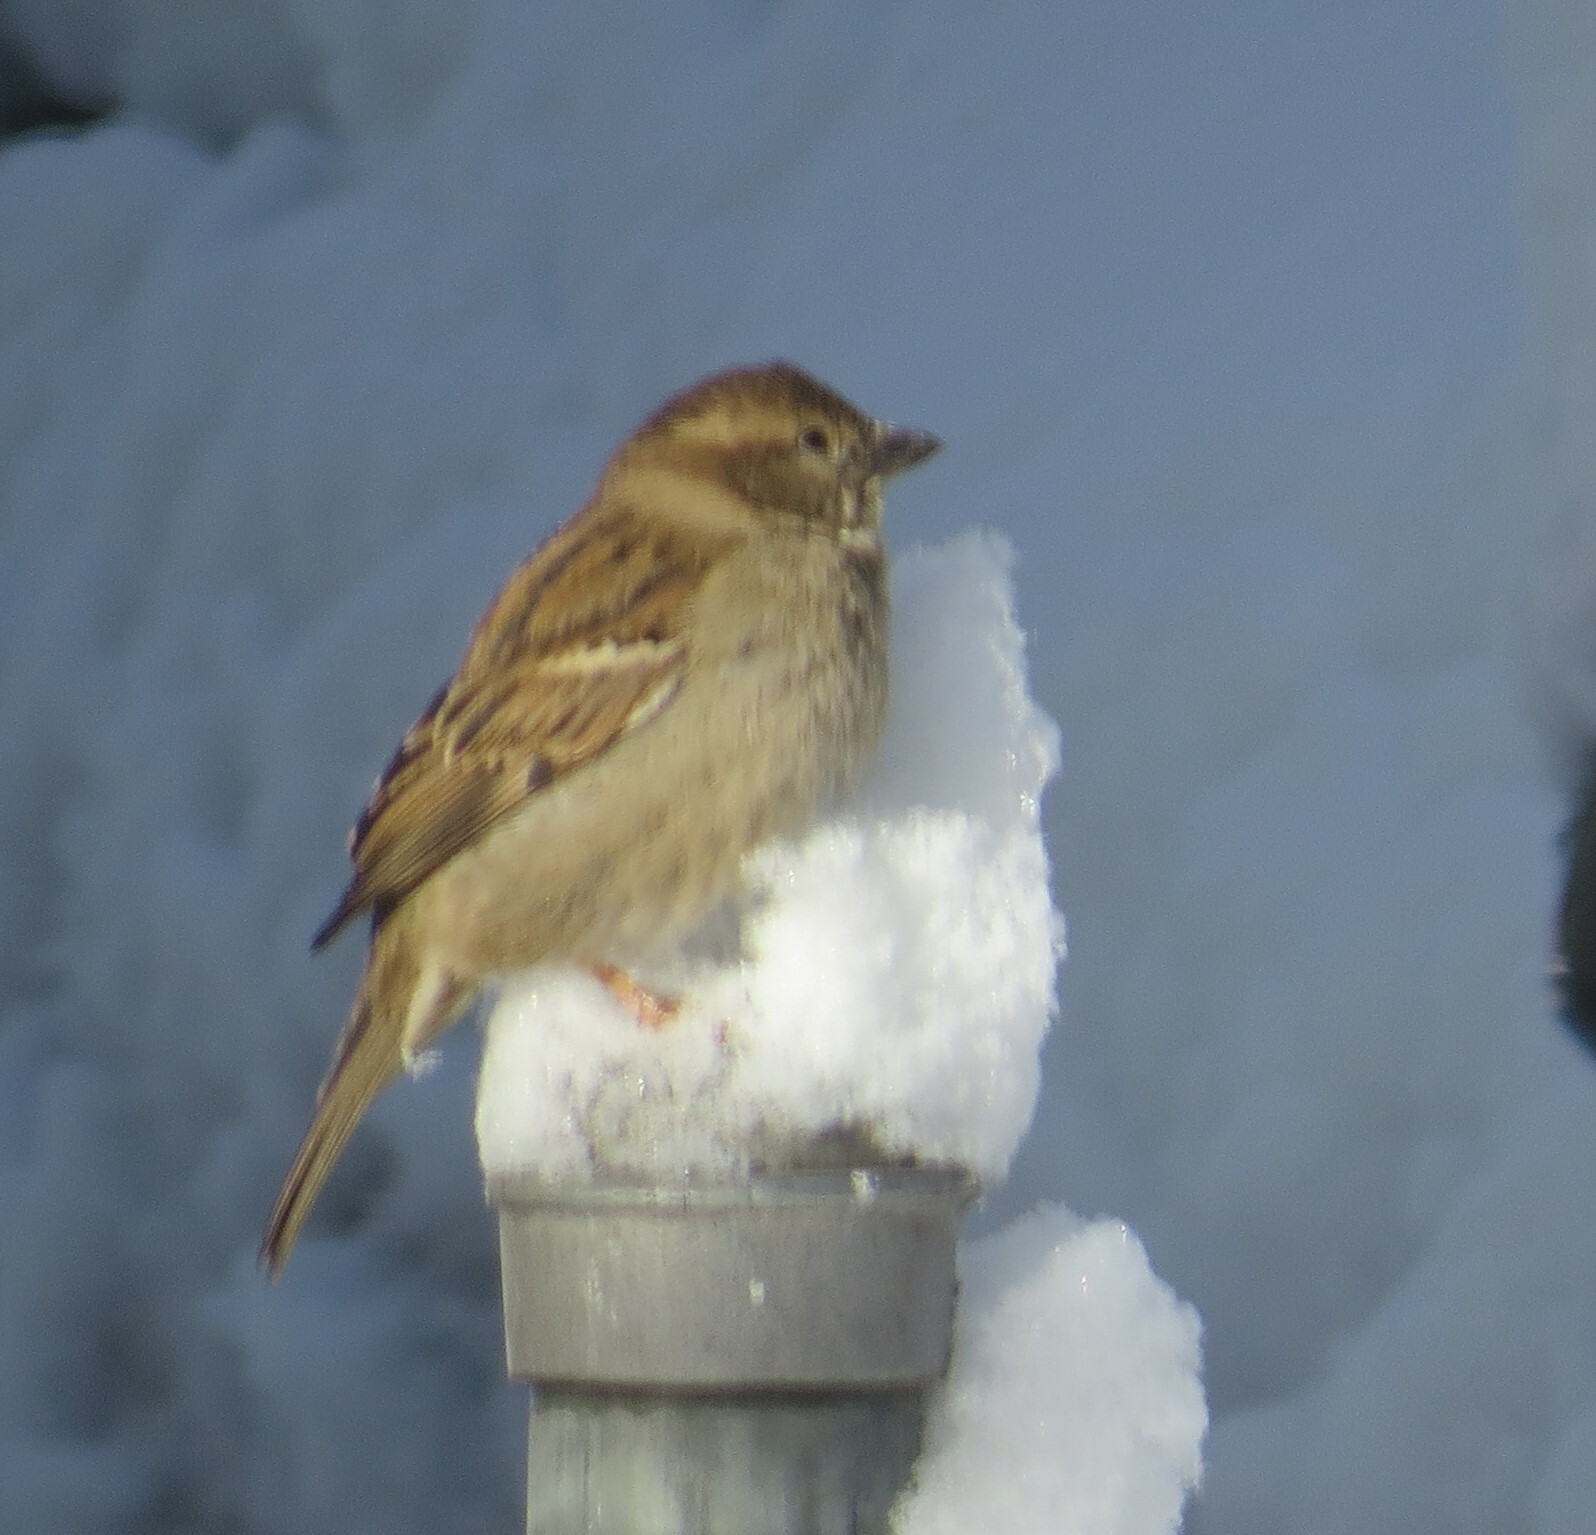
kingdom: Animalia
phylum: Chordata
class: Aves
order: Passeriformes
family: Passeridae
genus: Passer
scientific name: Passer domesticus
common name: House sparrow
